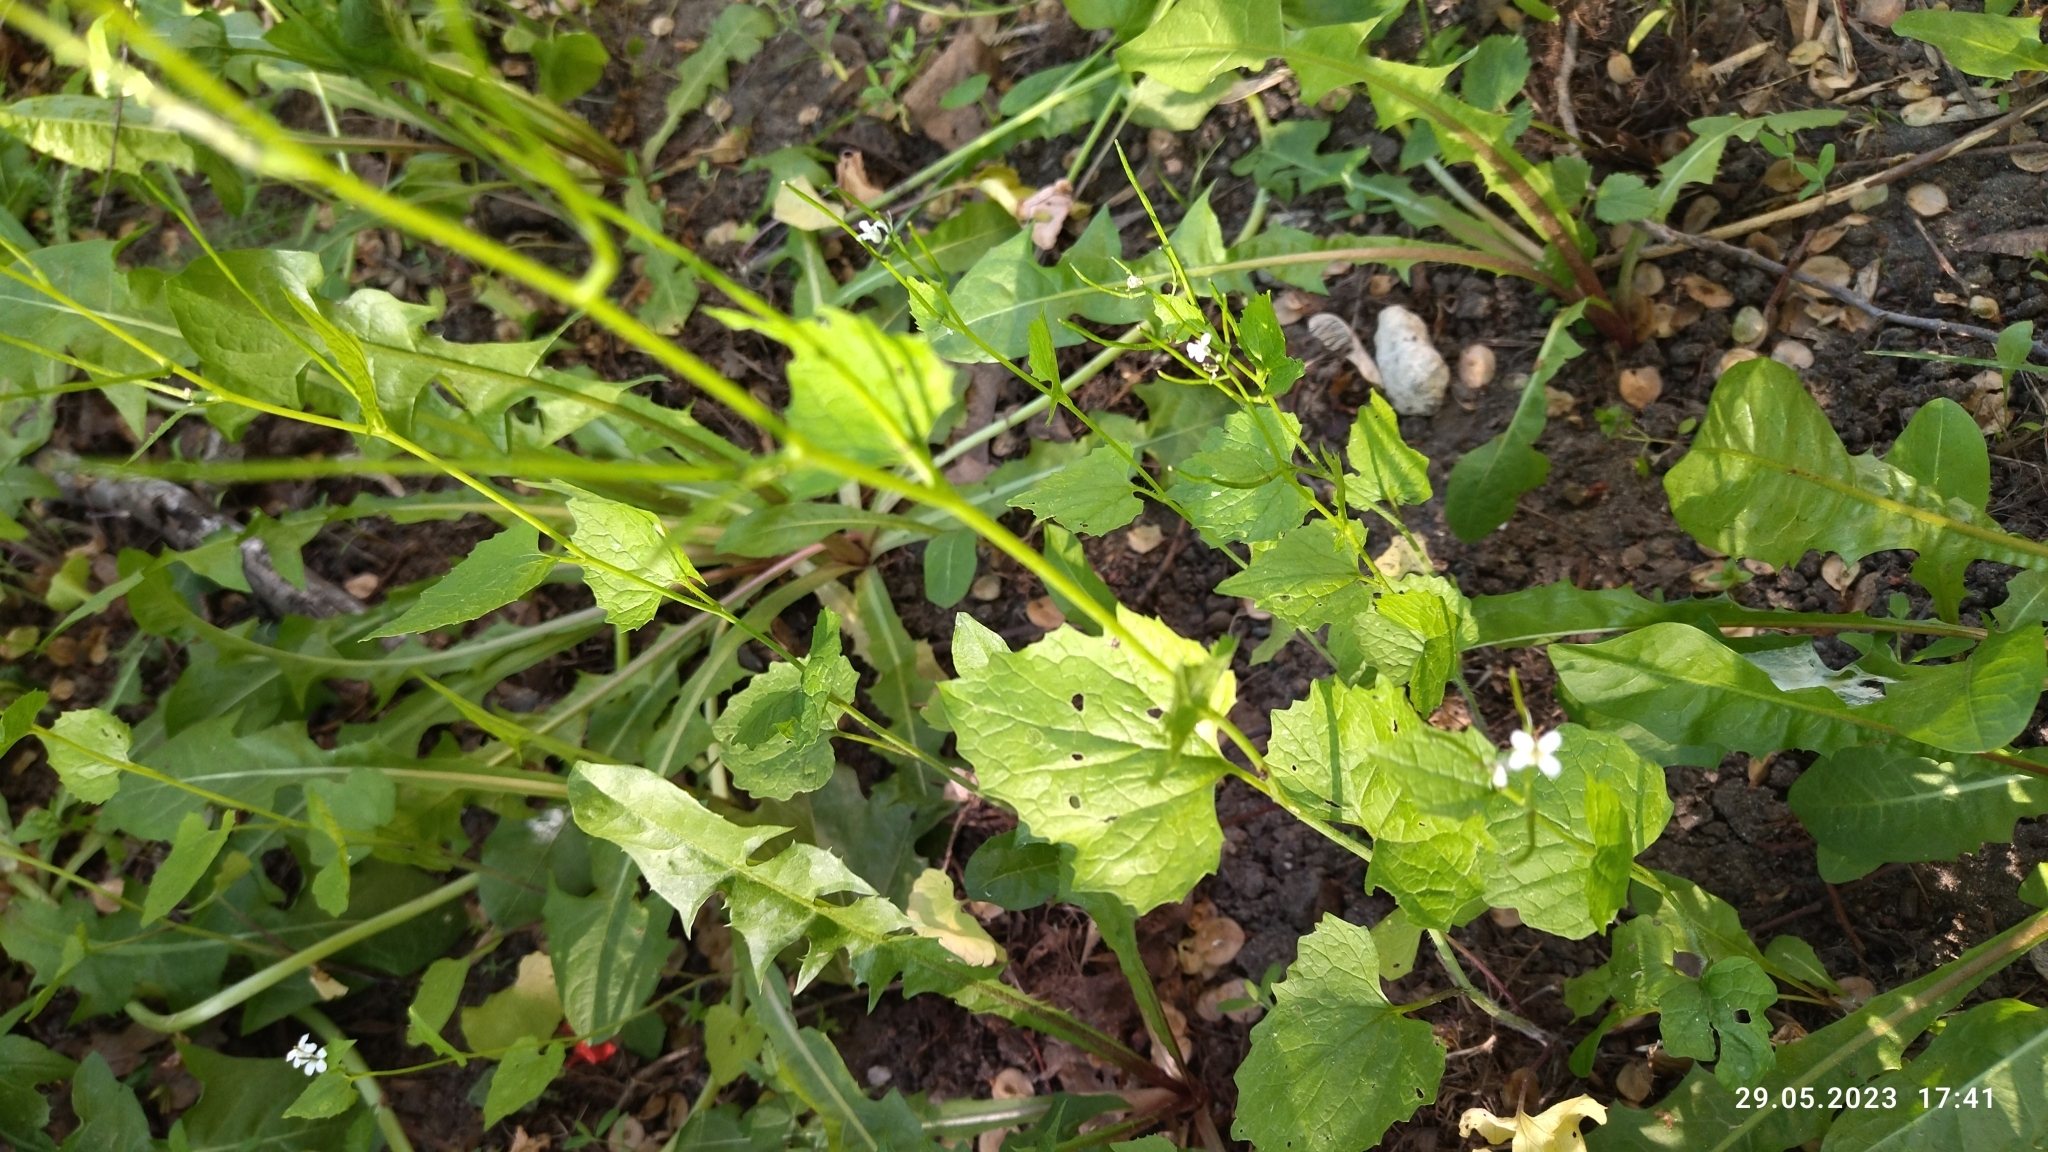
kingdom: Plantae
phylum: Tracheophyta
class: Magnoliopsida
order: Brassicales
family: Brassicaceae
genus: Alliaria
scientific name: Alliaria petiolata
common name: Garlic mustard
